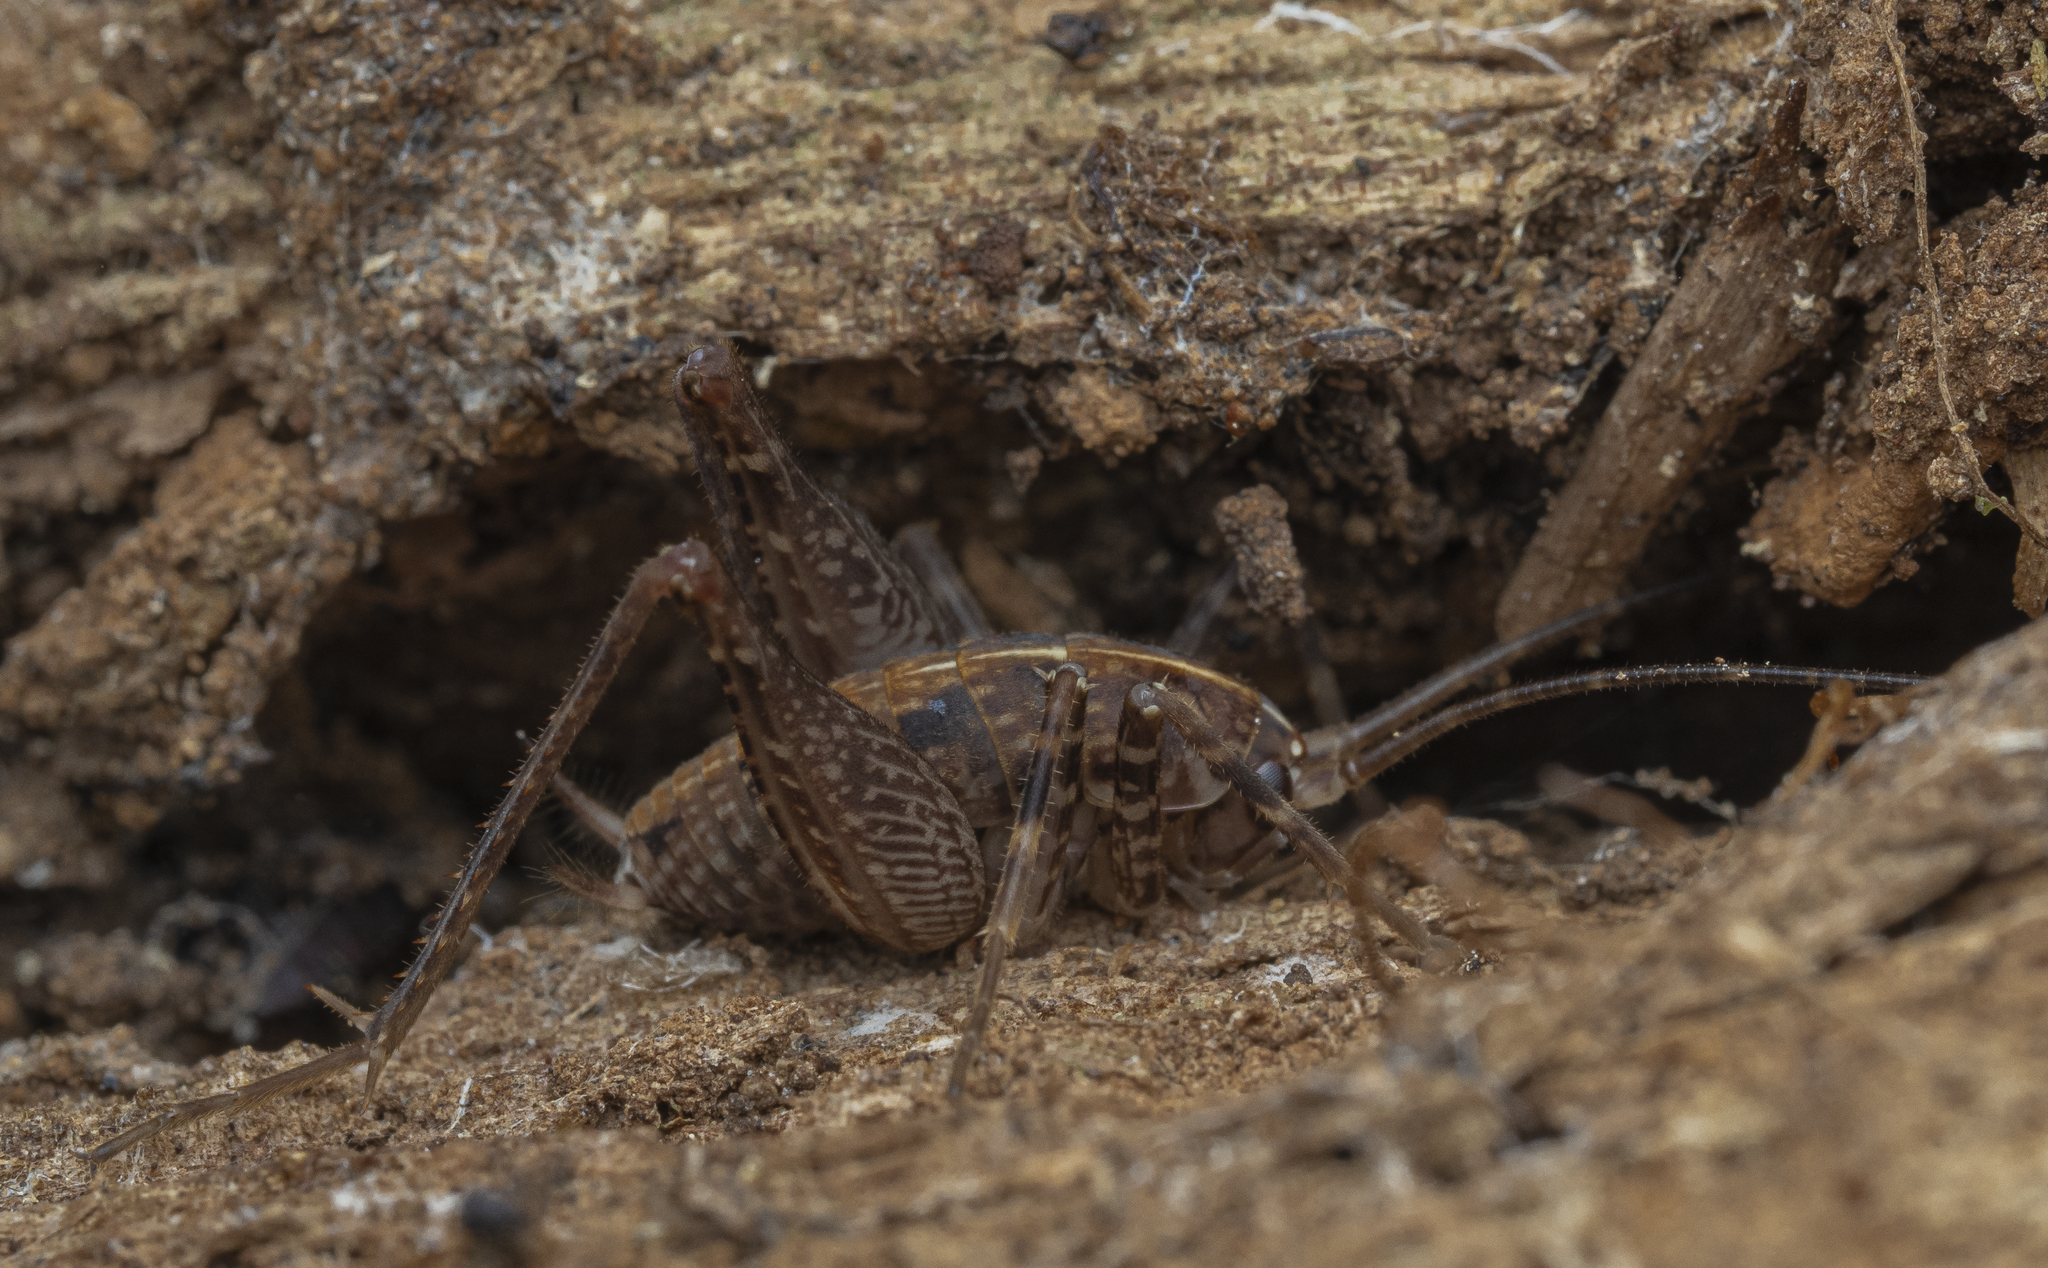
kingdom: Animalia
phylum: Arthropoda
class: Insecta
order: Orthoptera
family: Rhaphidophoridae
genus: Pleioplectron
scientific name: Pleioplectron simplex
